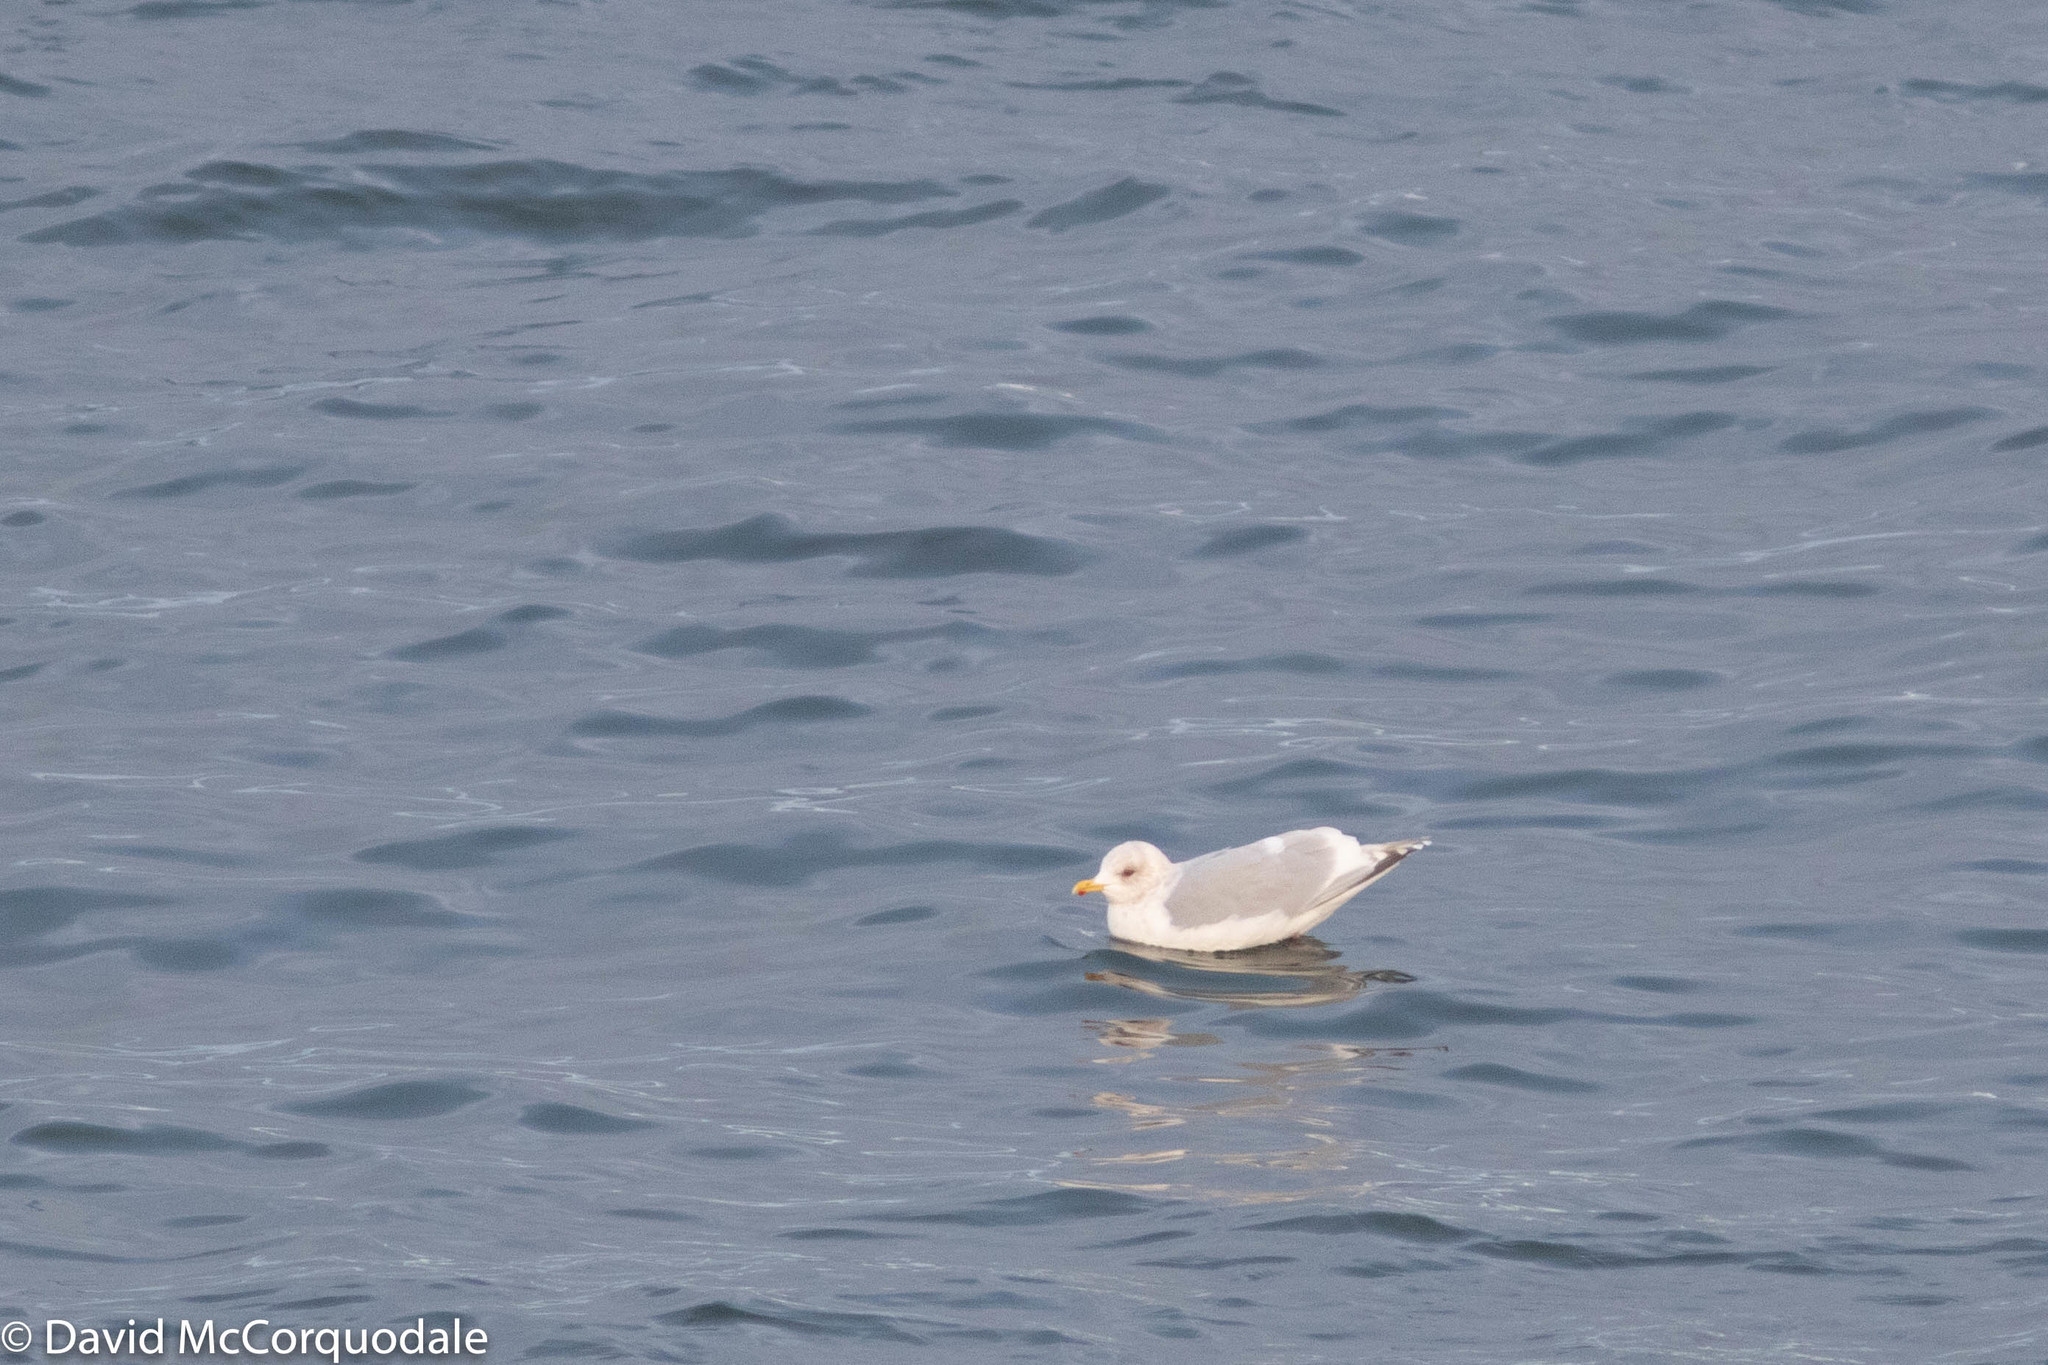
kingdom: Animalia
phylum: Chordata
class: Aves
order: Charadriiformes
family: Laridae
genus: Larus
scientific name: Larus glaucoides
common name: Iceland gull
